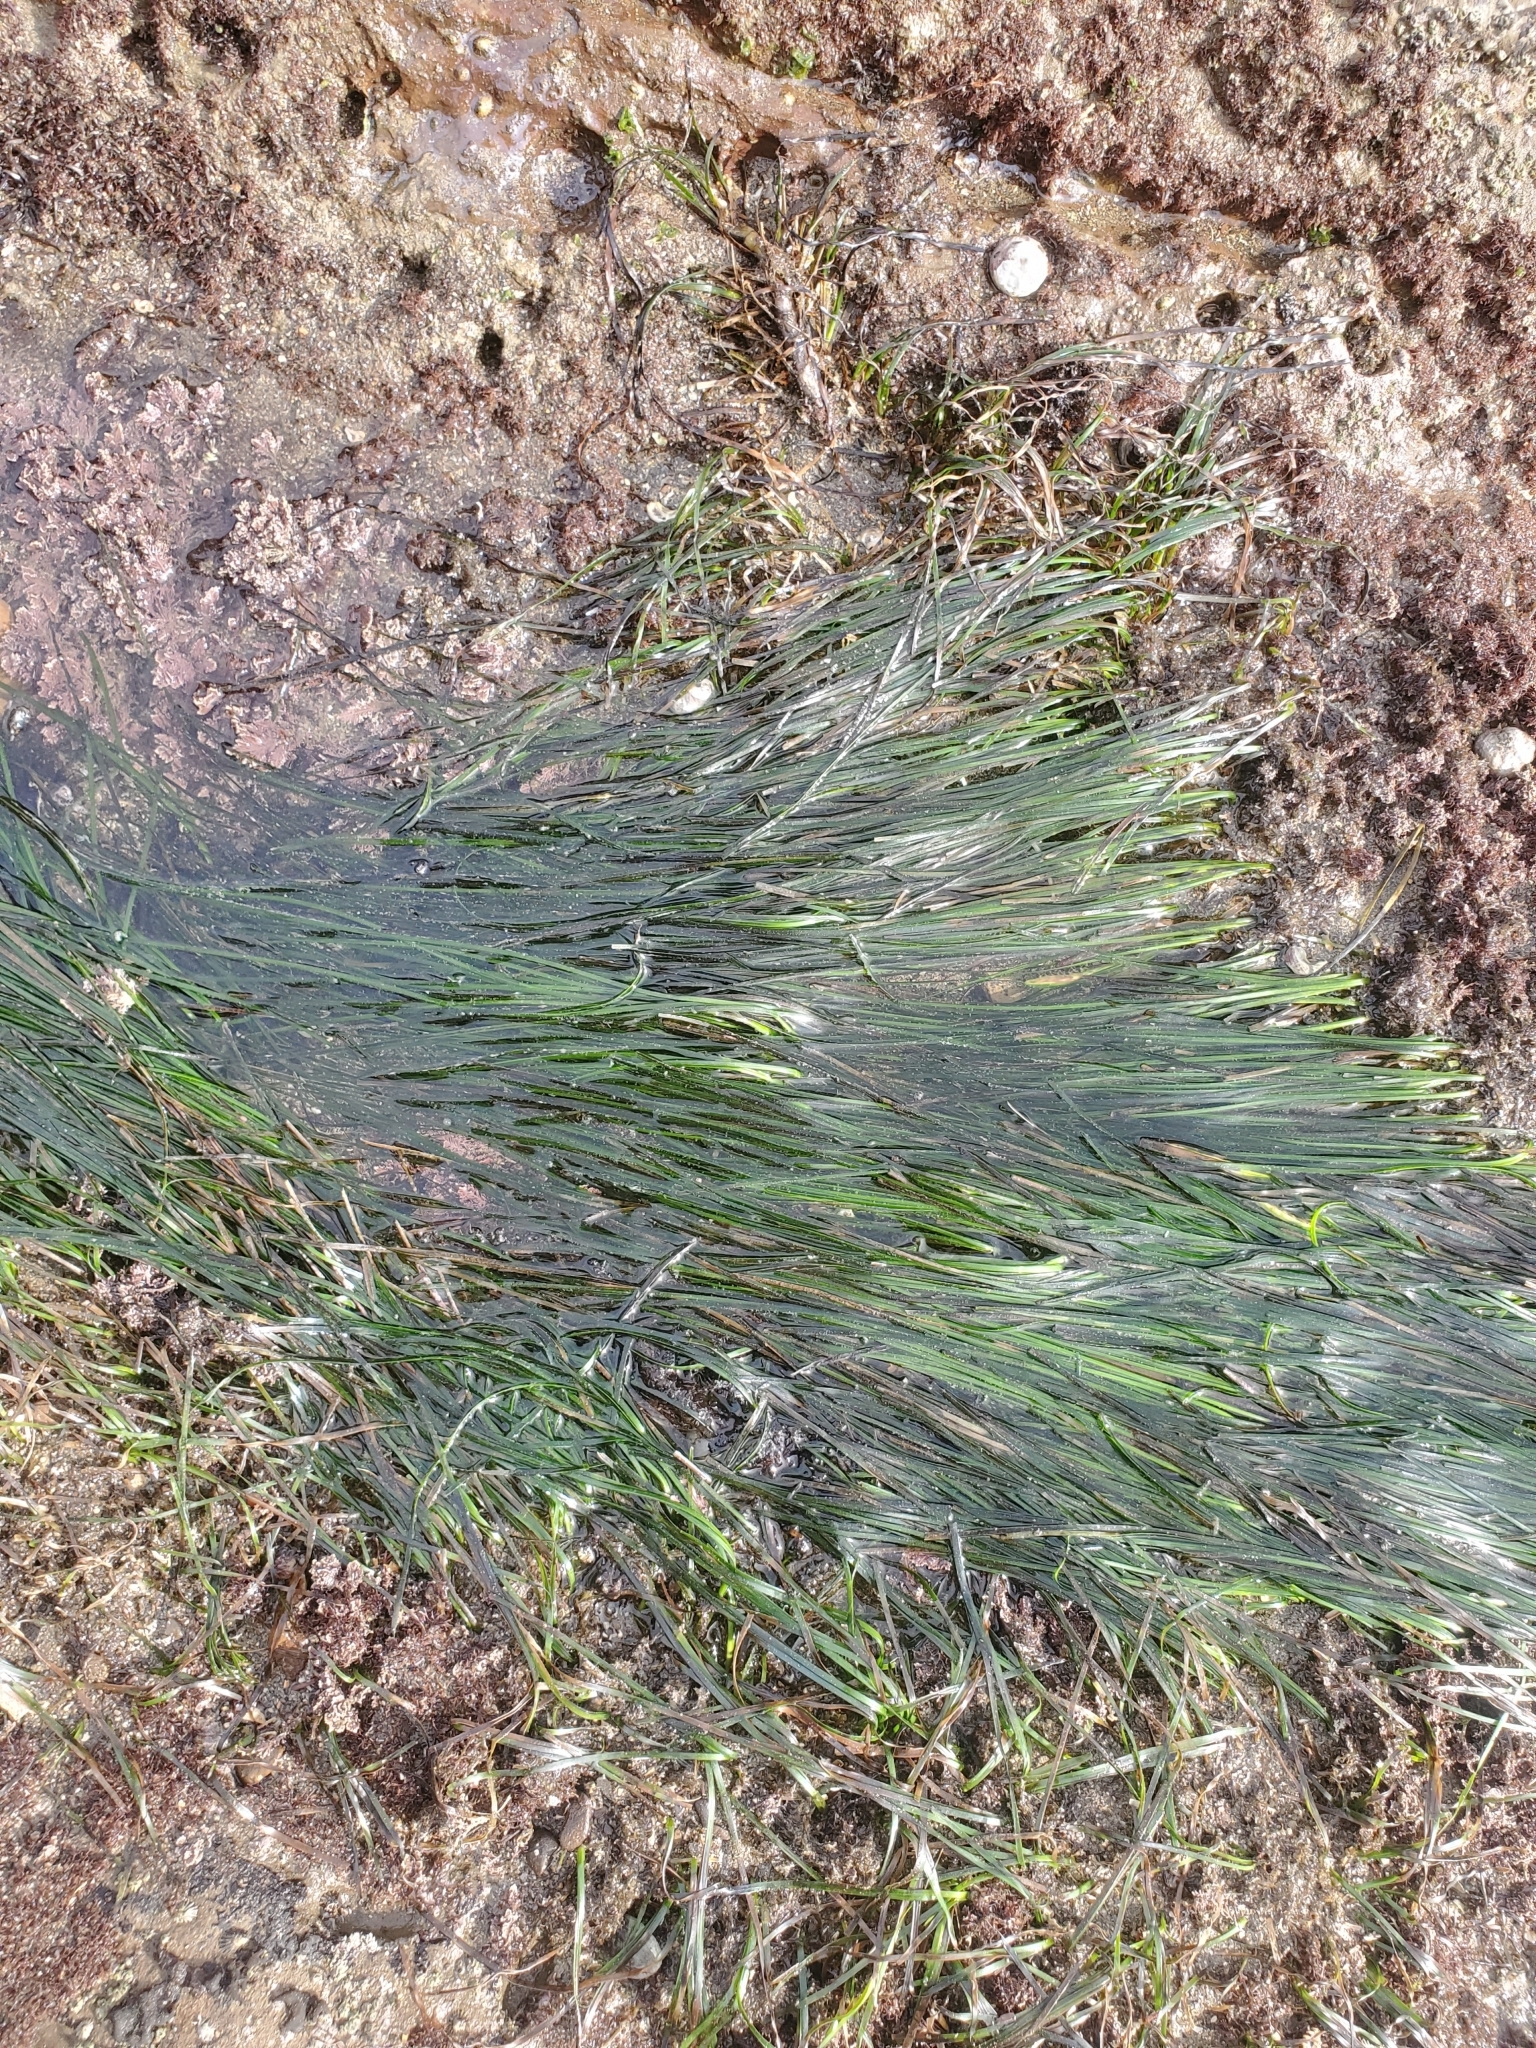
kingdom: Plantae
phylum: Tracheophyta
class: Liliopsida
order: Alismatales
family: Zosteraceae
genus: Phyllospadix
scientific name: Phyllospadix scouleri
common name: Species code: ps
